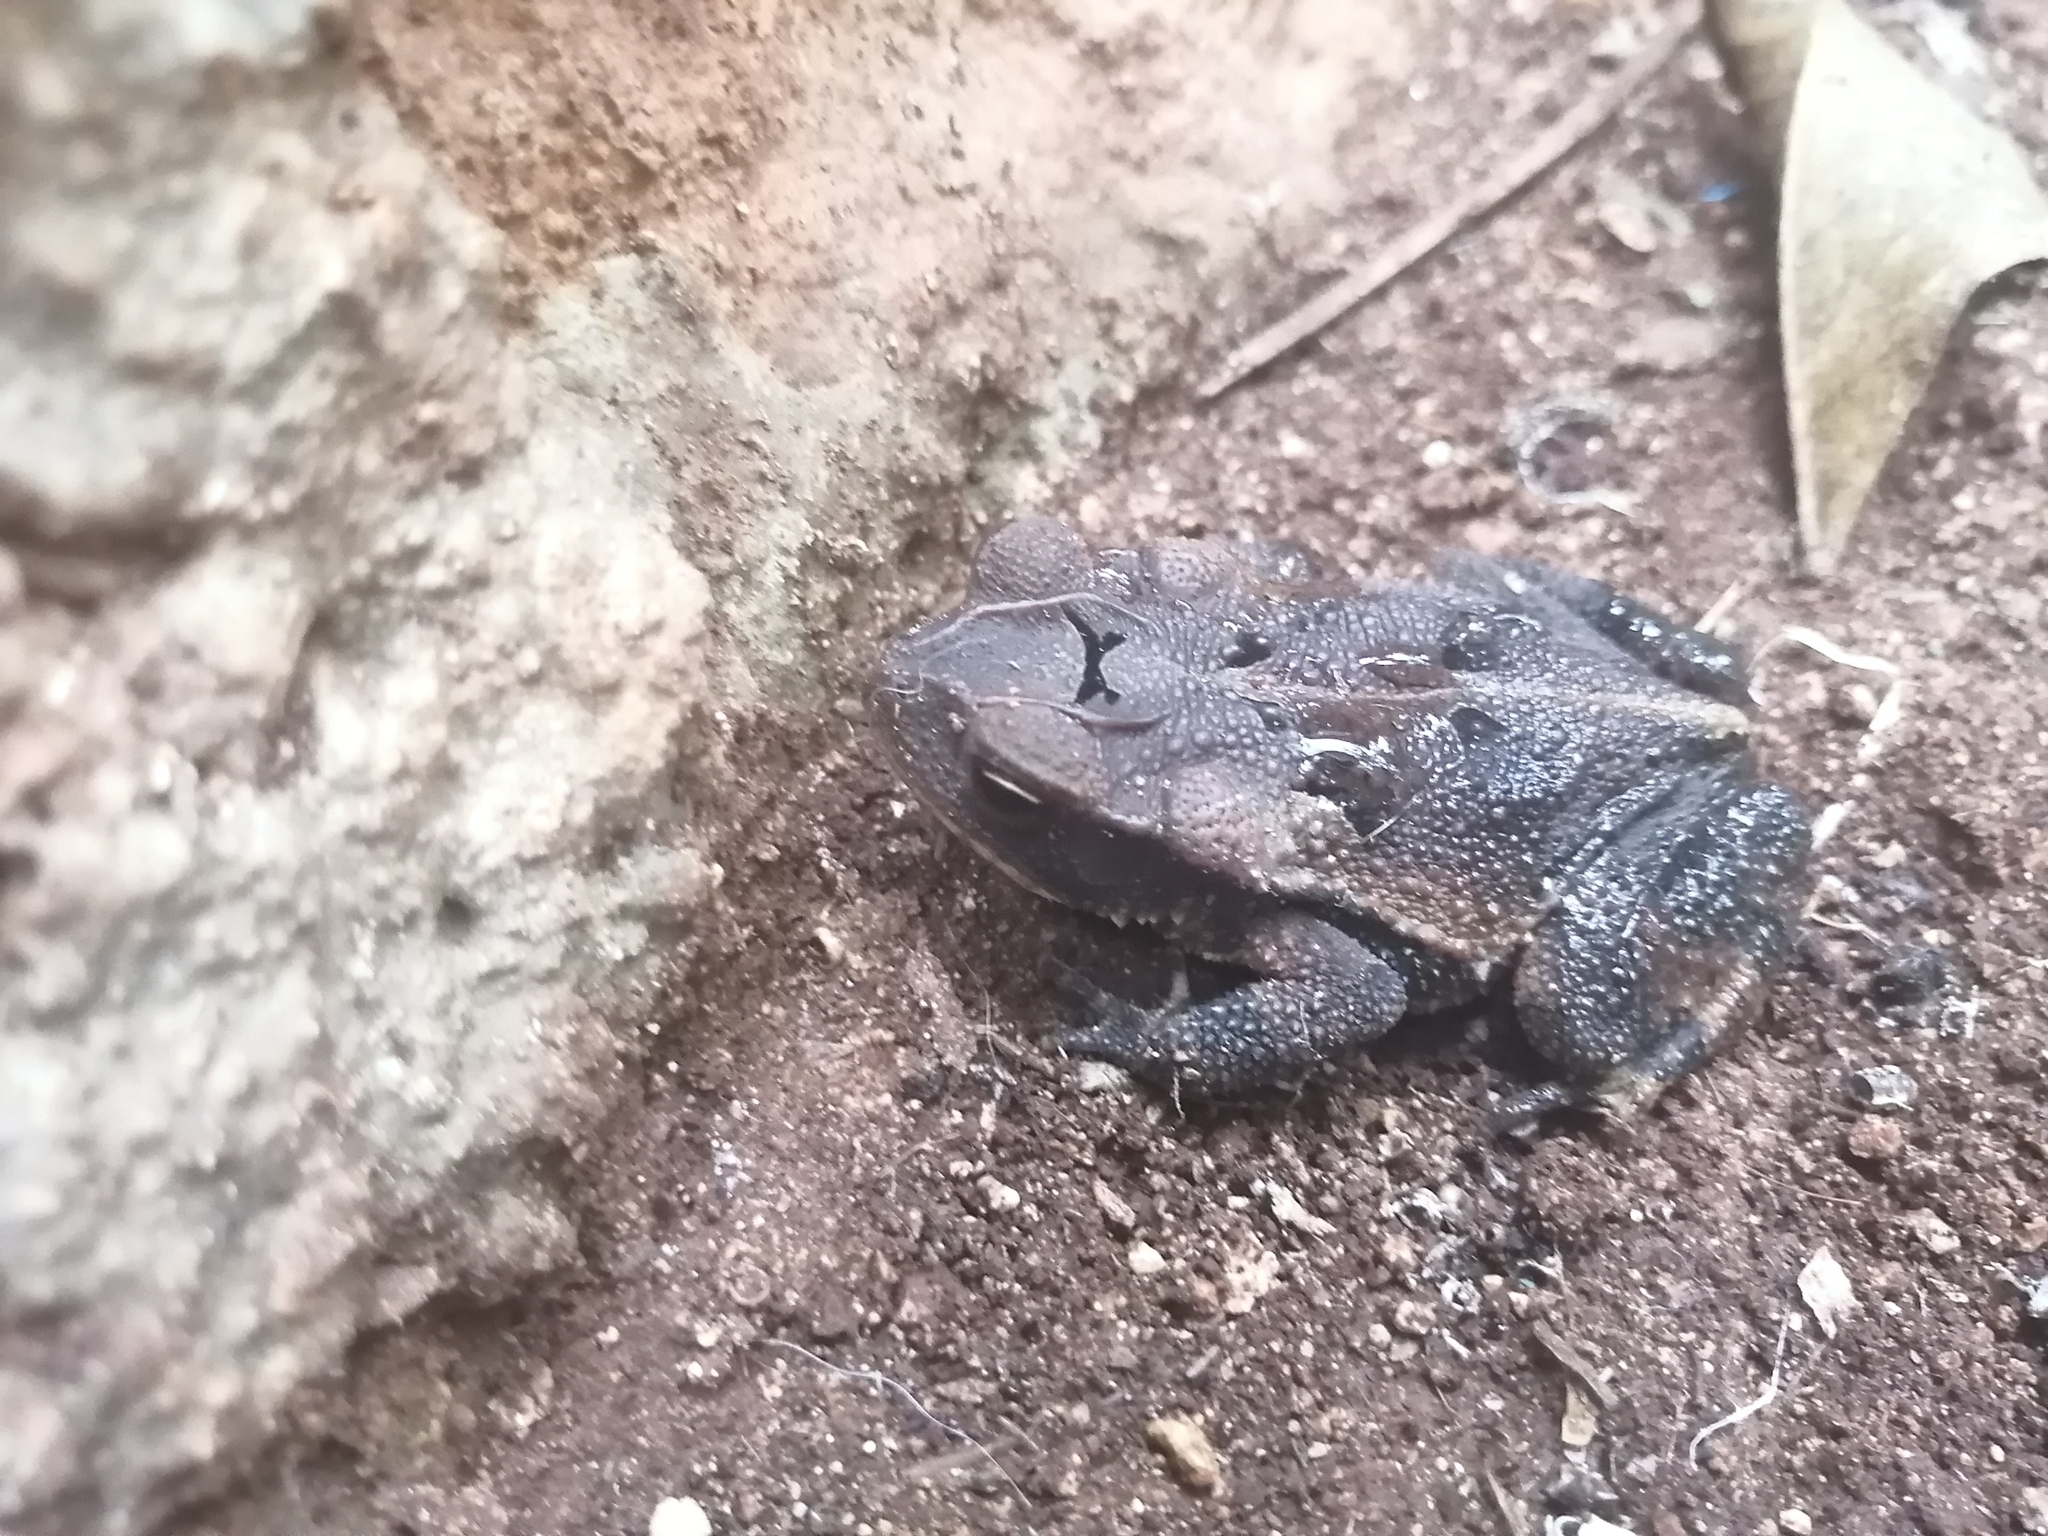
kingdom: Animalia
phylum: Chordata
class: Amphibia
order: Anura
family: Bufonidae
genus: Incilius
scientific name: Incilius valliceps
